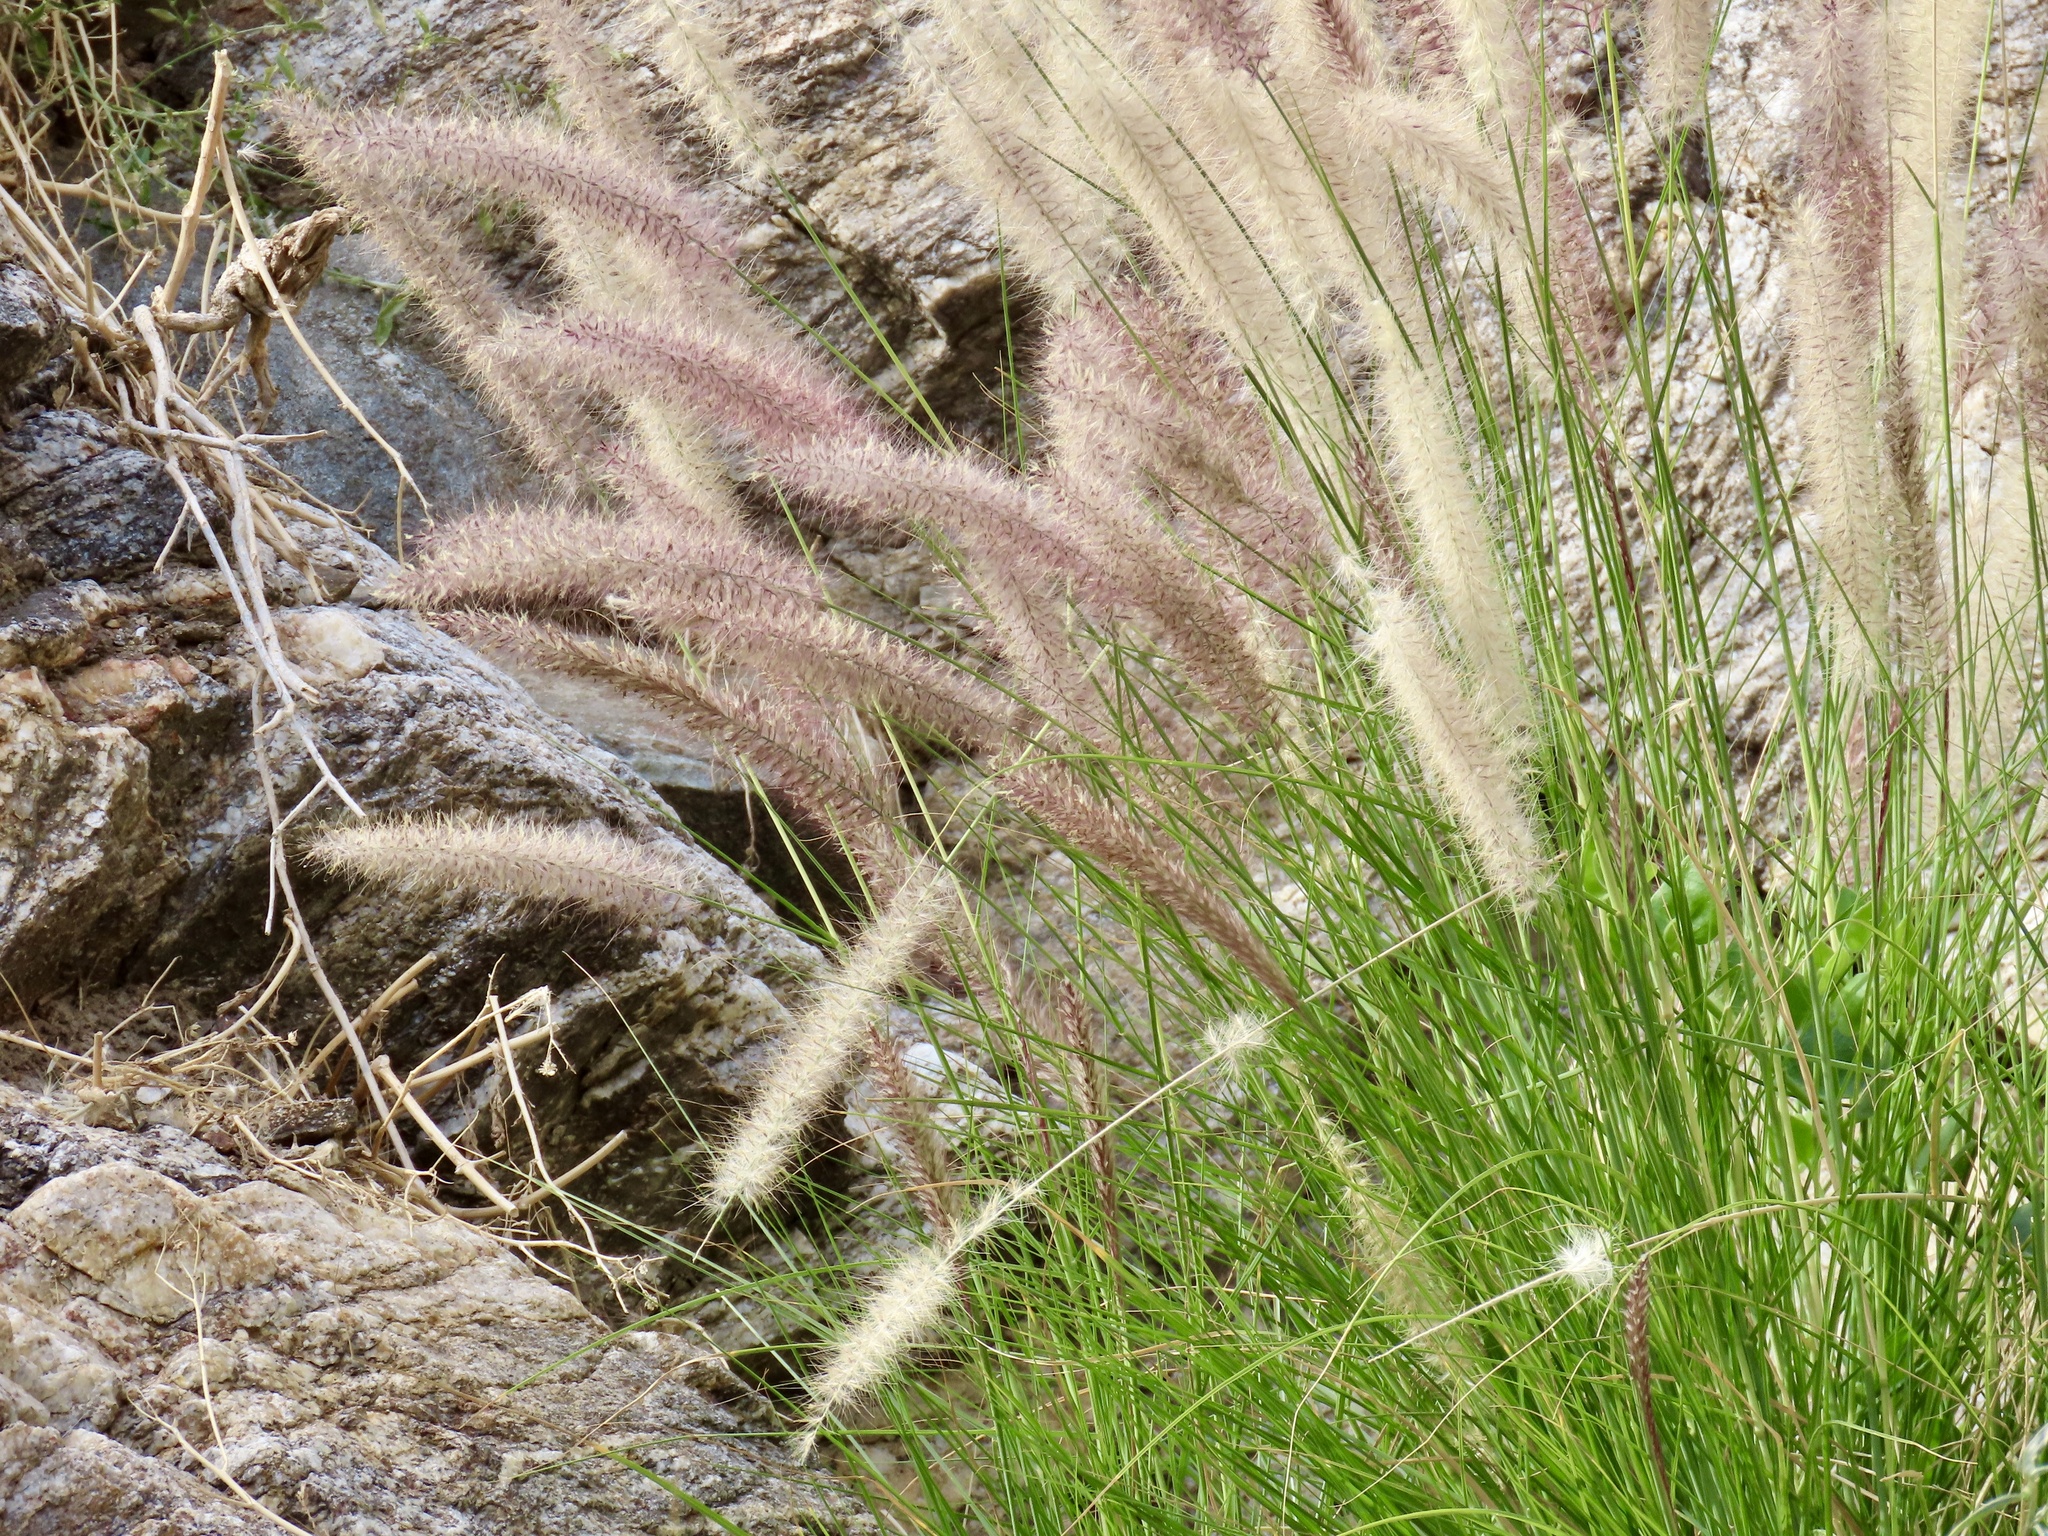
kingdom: Plantae
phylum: Tracheophyta
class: Liliopsida
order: Poales
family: Poaceae
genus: Cenchrus
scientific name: Cenchrus setaceus
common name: Crimson fountaingrass
